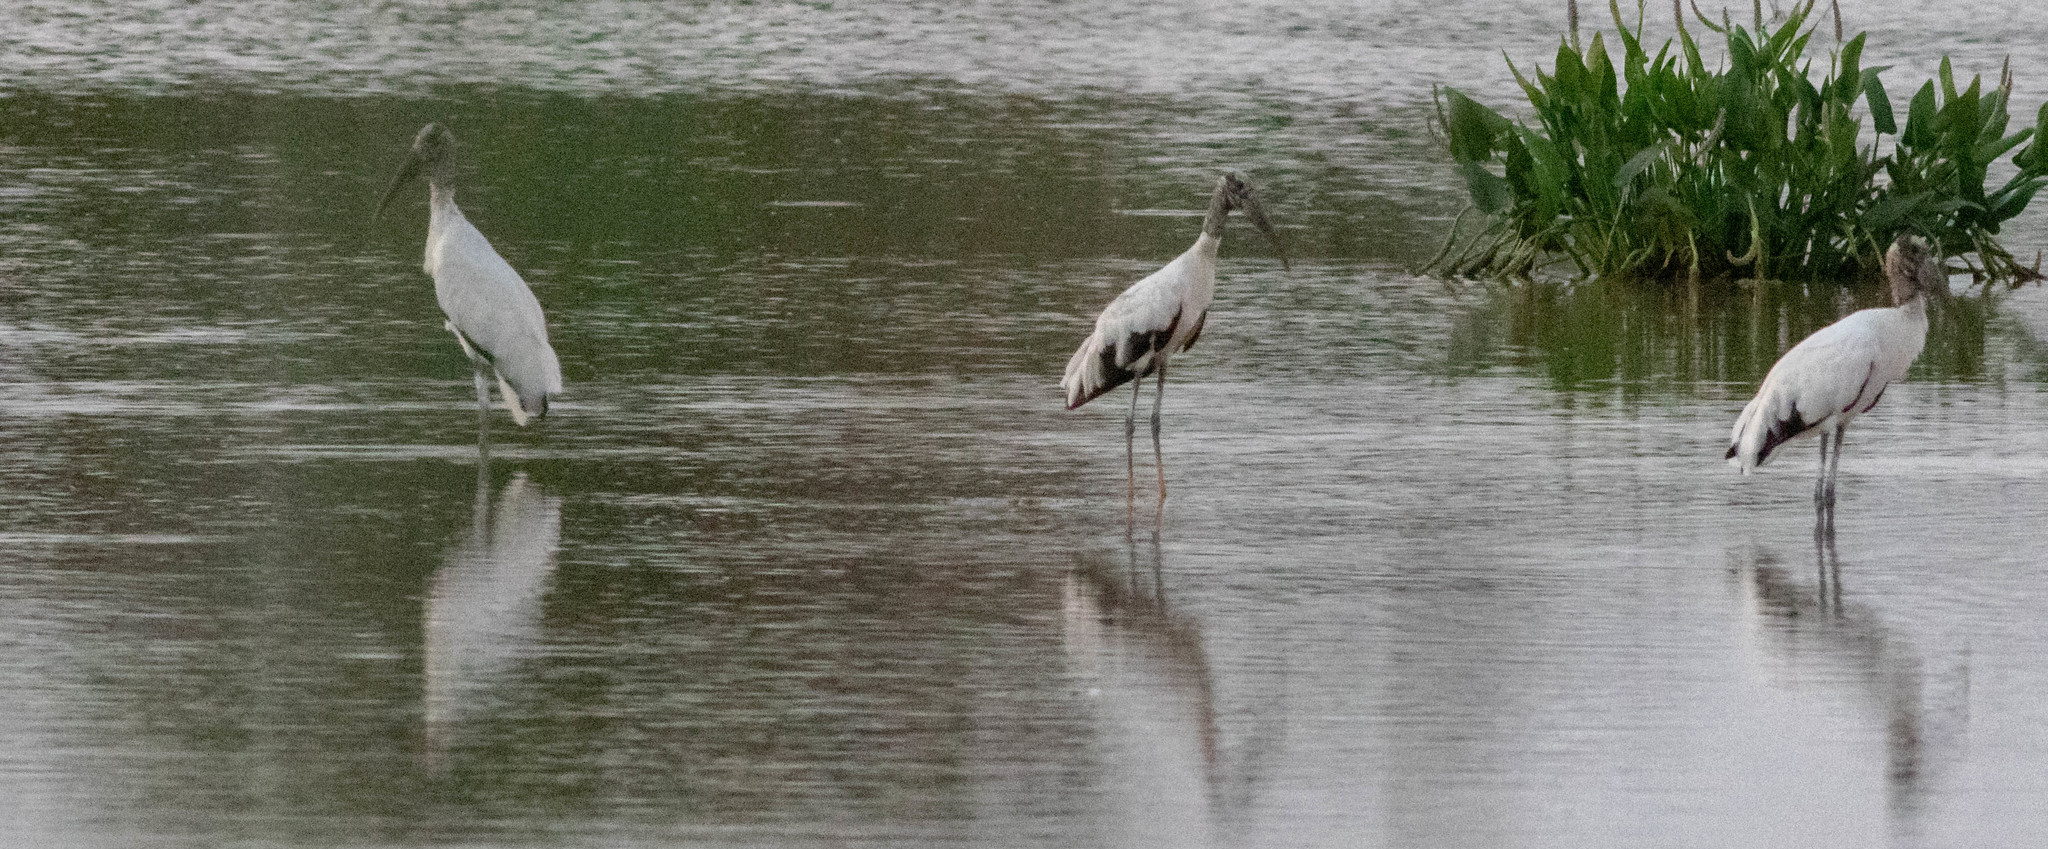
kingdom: Animalia
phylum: Chordata
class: Aves
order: Ciconiiformes
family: Ciconiidae
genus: Mycteria
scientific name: Mycteria americana
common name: Wood stork
